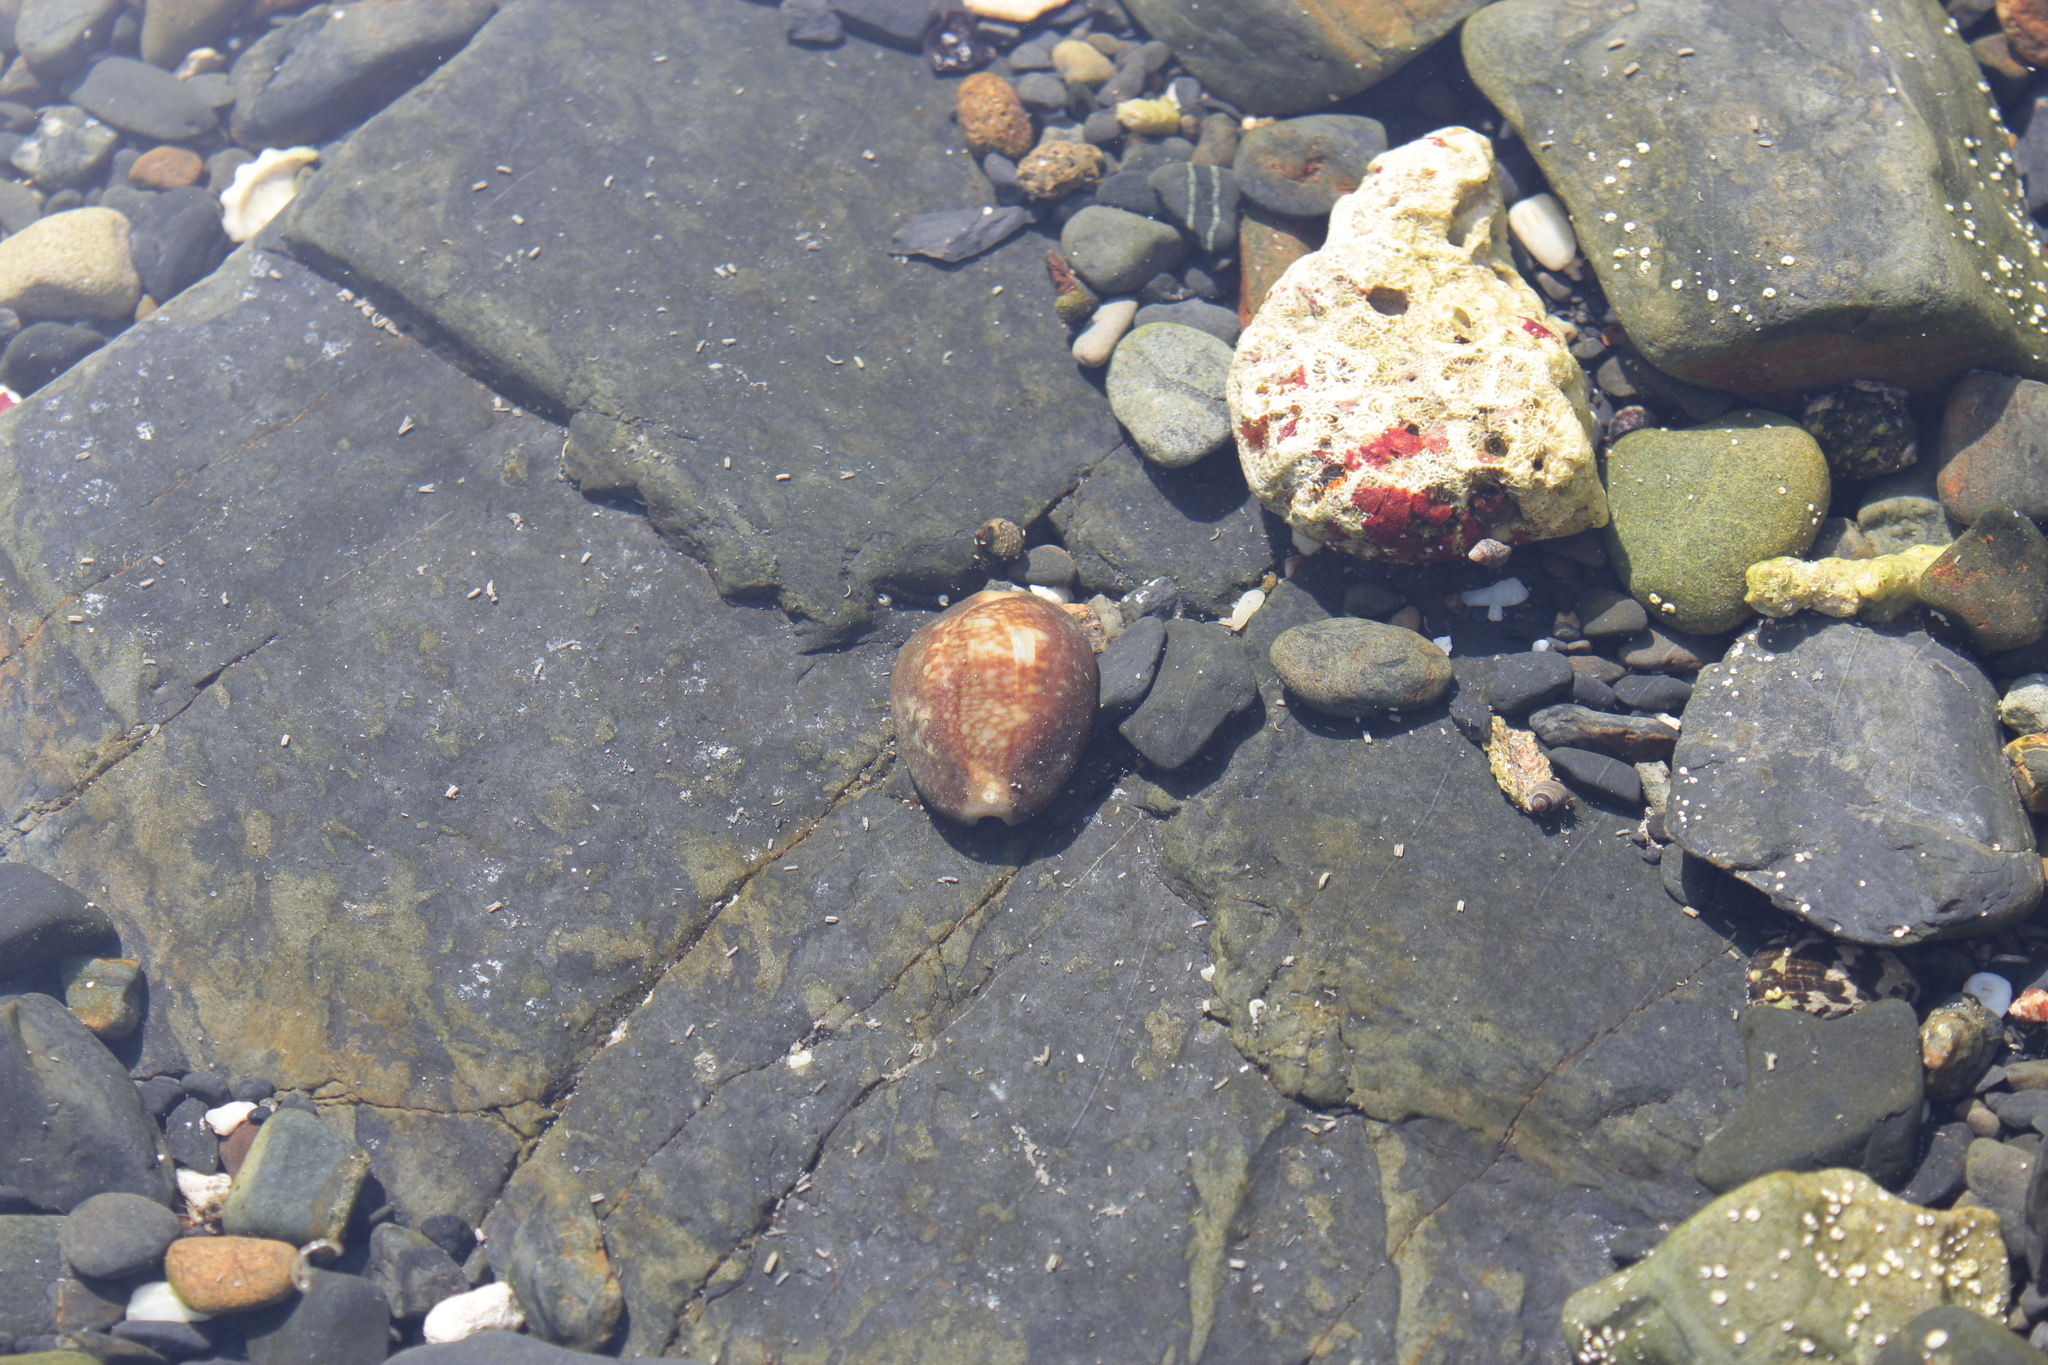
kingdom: Animalia
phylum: Mollusca
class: Gastropoda
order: Littorinimorpha
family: Cypraeidae
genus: Monetaria
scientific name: Monetaria caputserpentis
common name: Serpent's head cowrie
